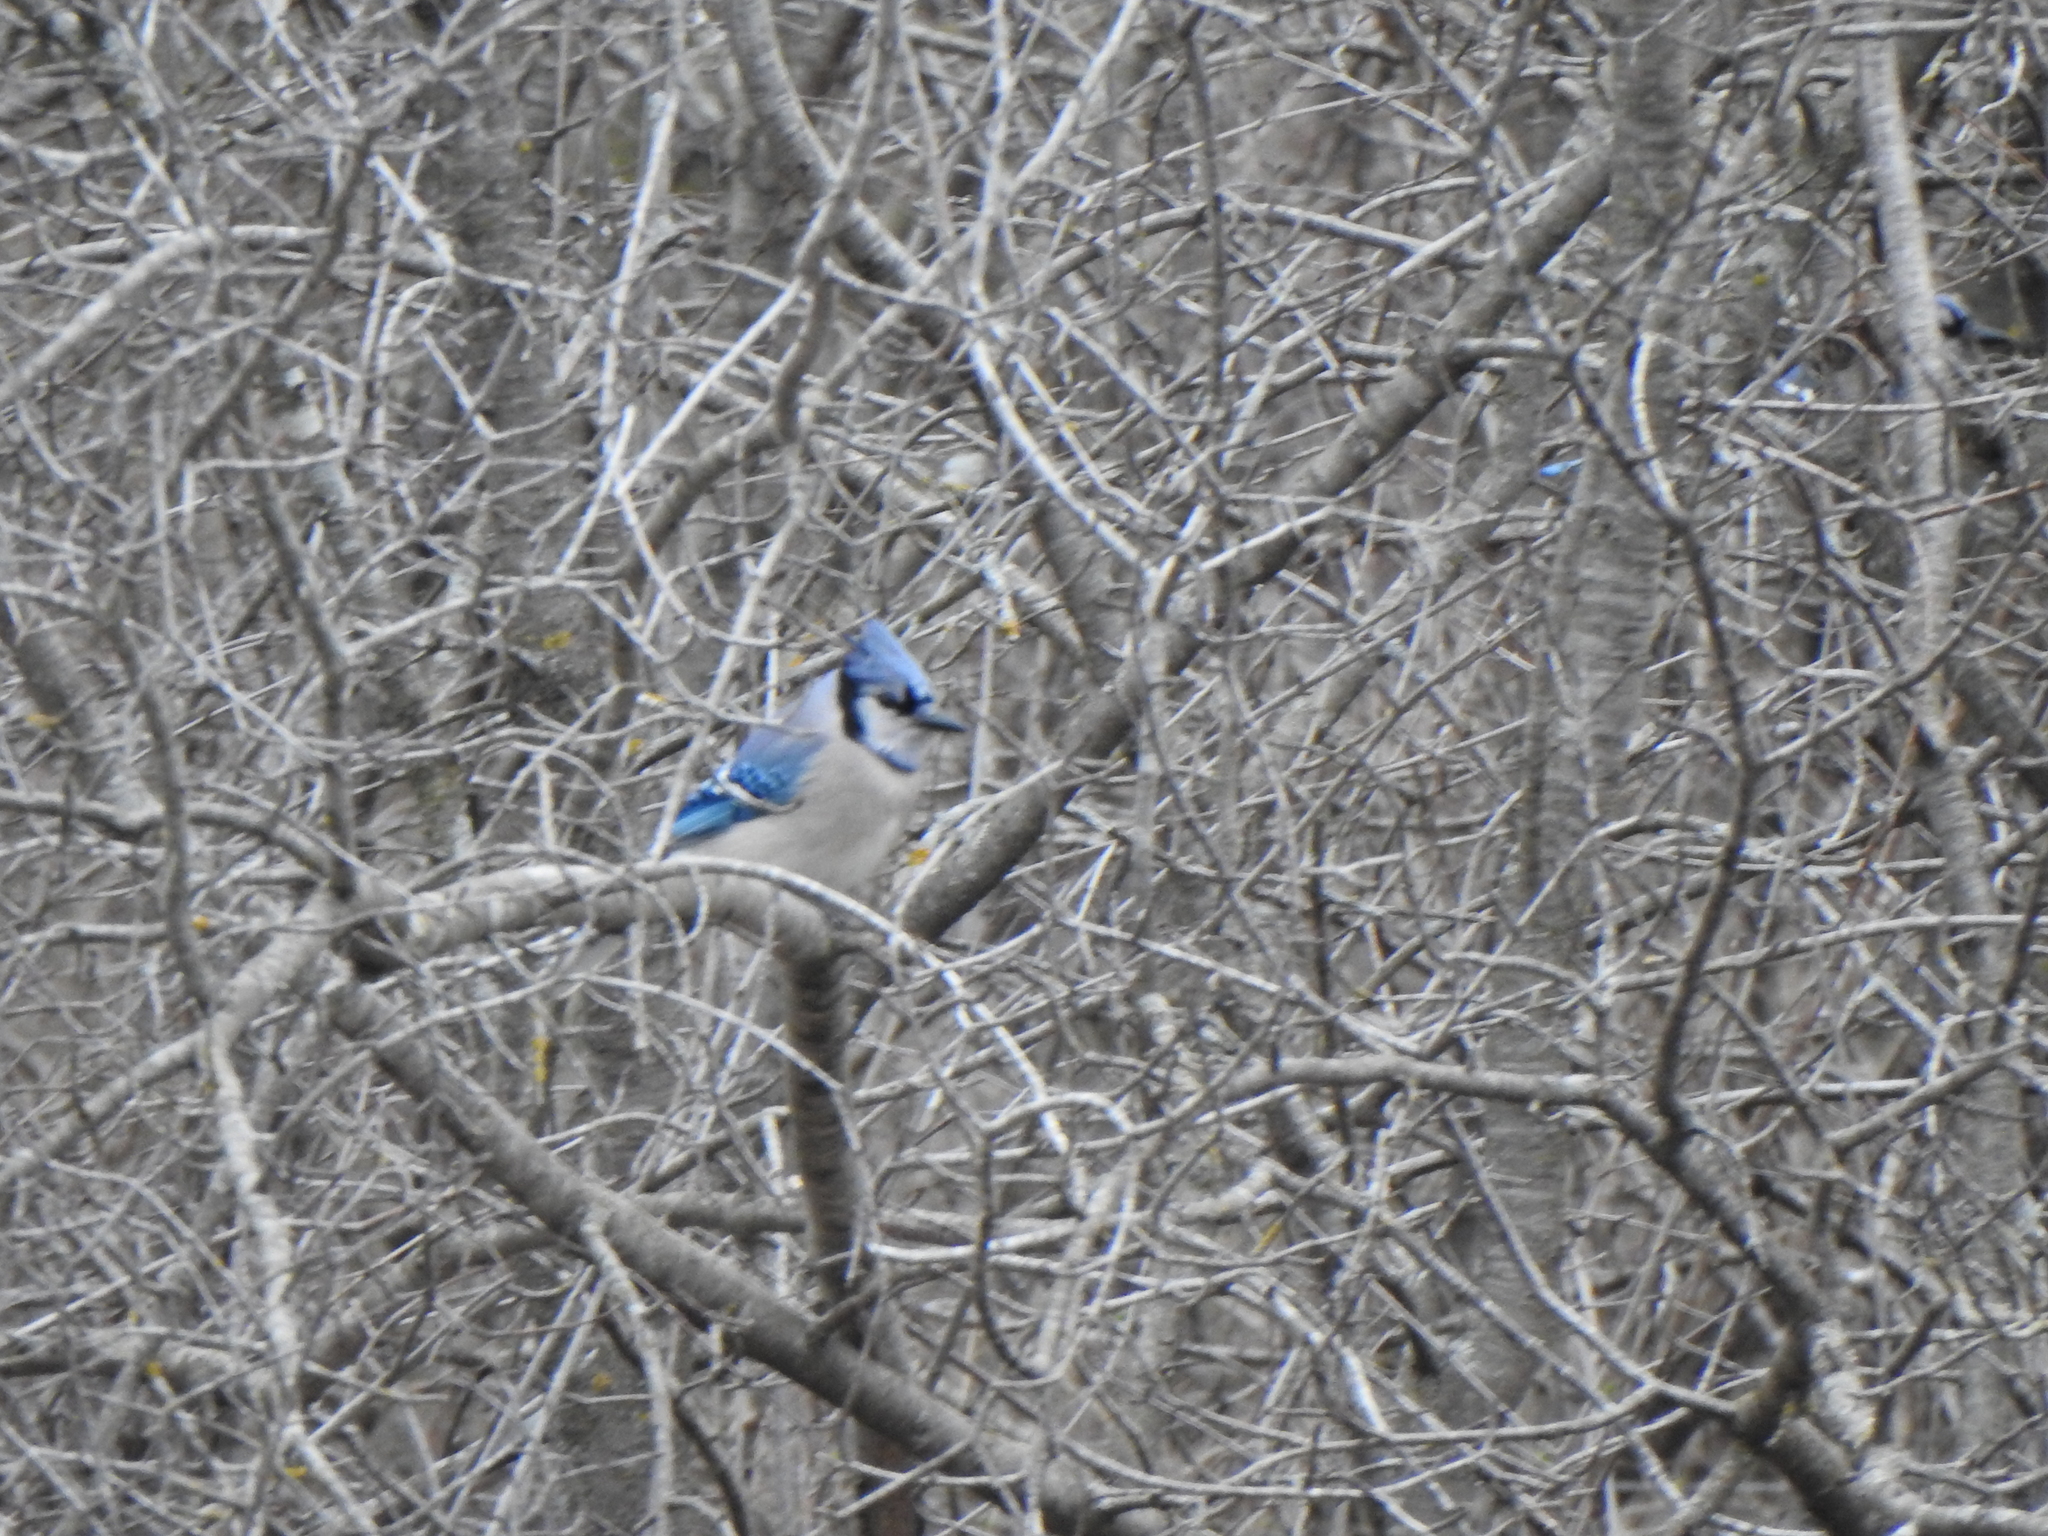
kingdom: Animalia
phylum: Chordata
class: Aves
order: Passeriformes
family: Corvidae
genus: Cyanocitta
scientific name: Cyanocitta cristata
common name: Blue jay
